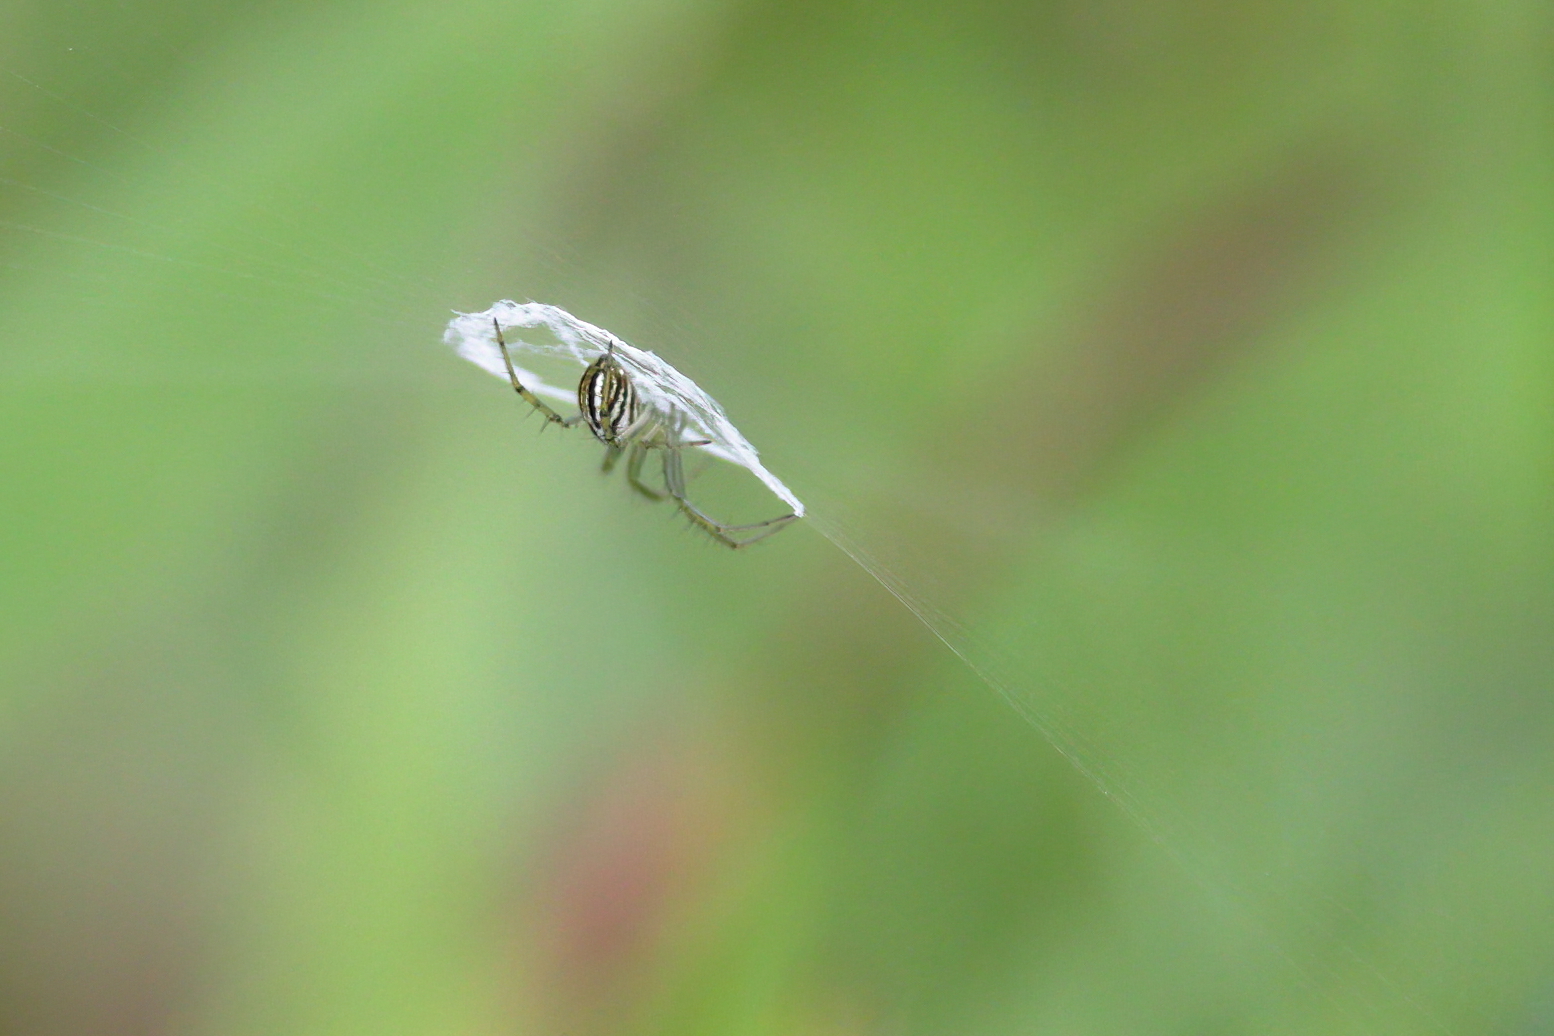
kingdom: Animalia
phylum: Arthropoda
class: Arachnida
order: Araneae
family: Araneidae
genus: Mangora
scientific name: Mangora gibberosa
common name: Lined orbweaver
